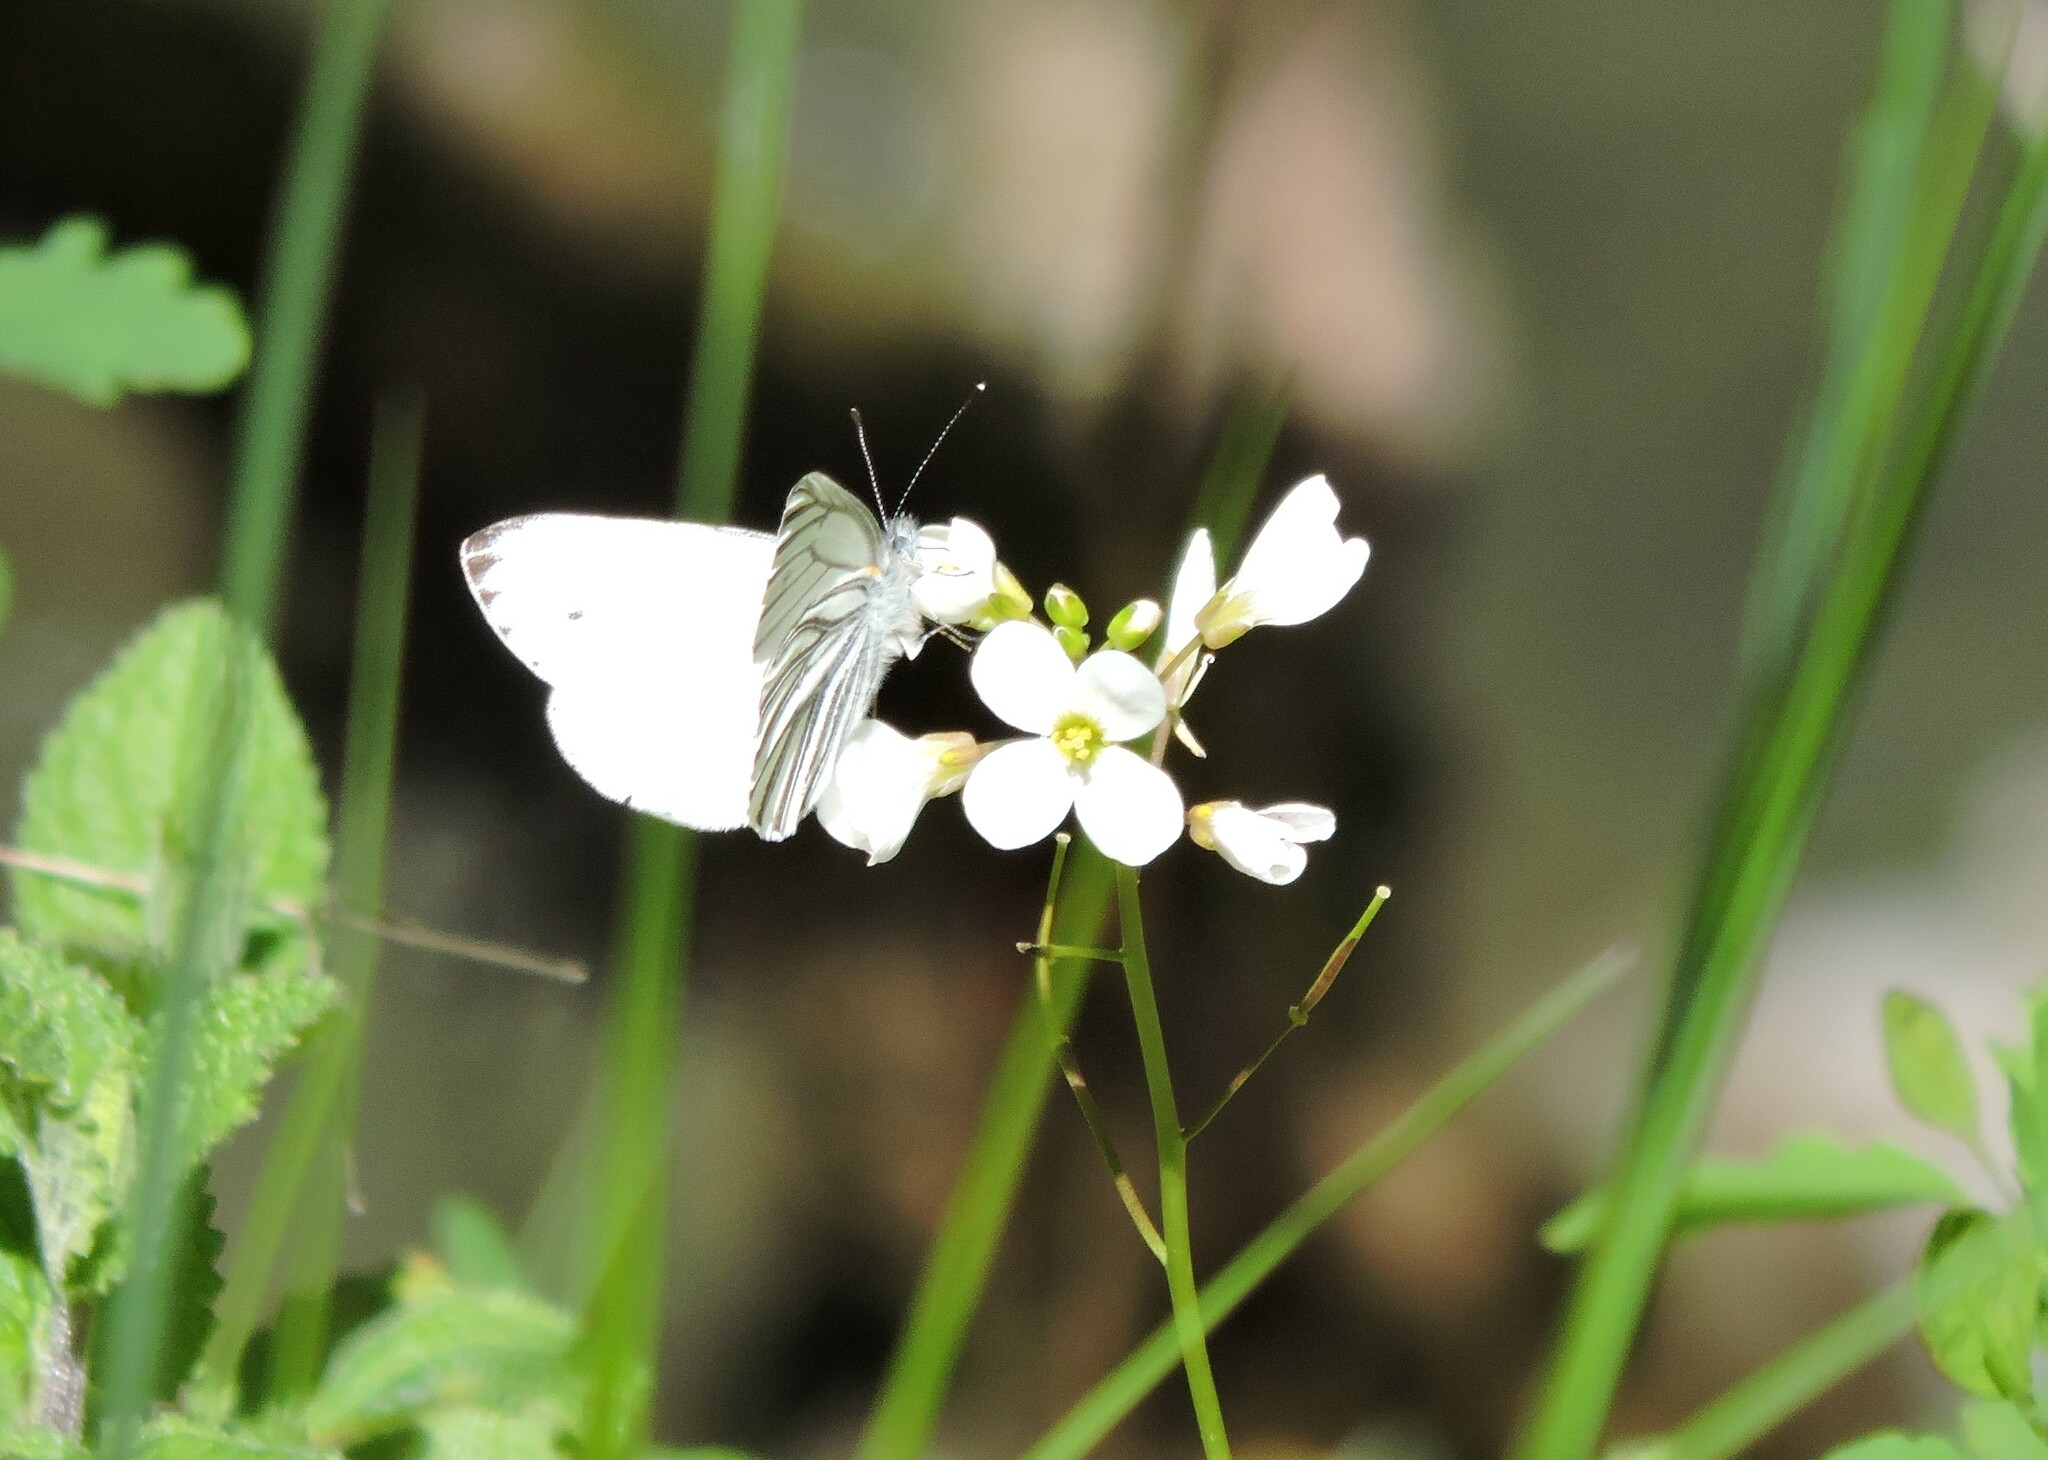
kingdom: Animalia
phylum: Arthropoda
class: Insecta
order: Lepidoptera
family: Pieridae
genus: Pieris
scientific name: Pieris marginalis
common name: Margined white
